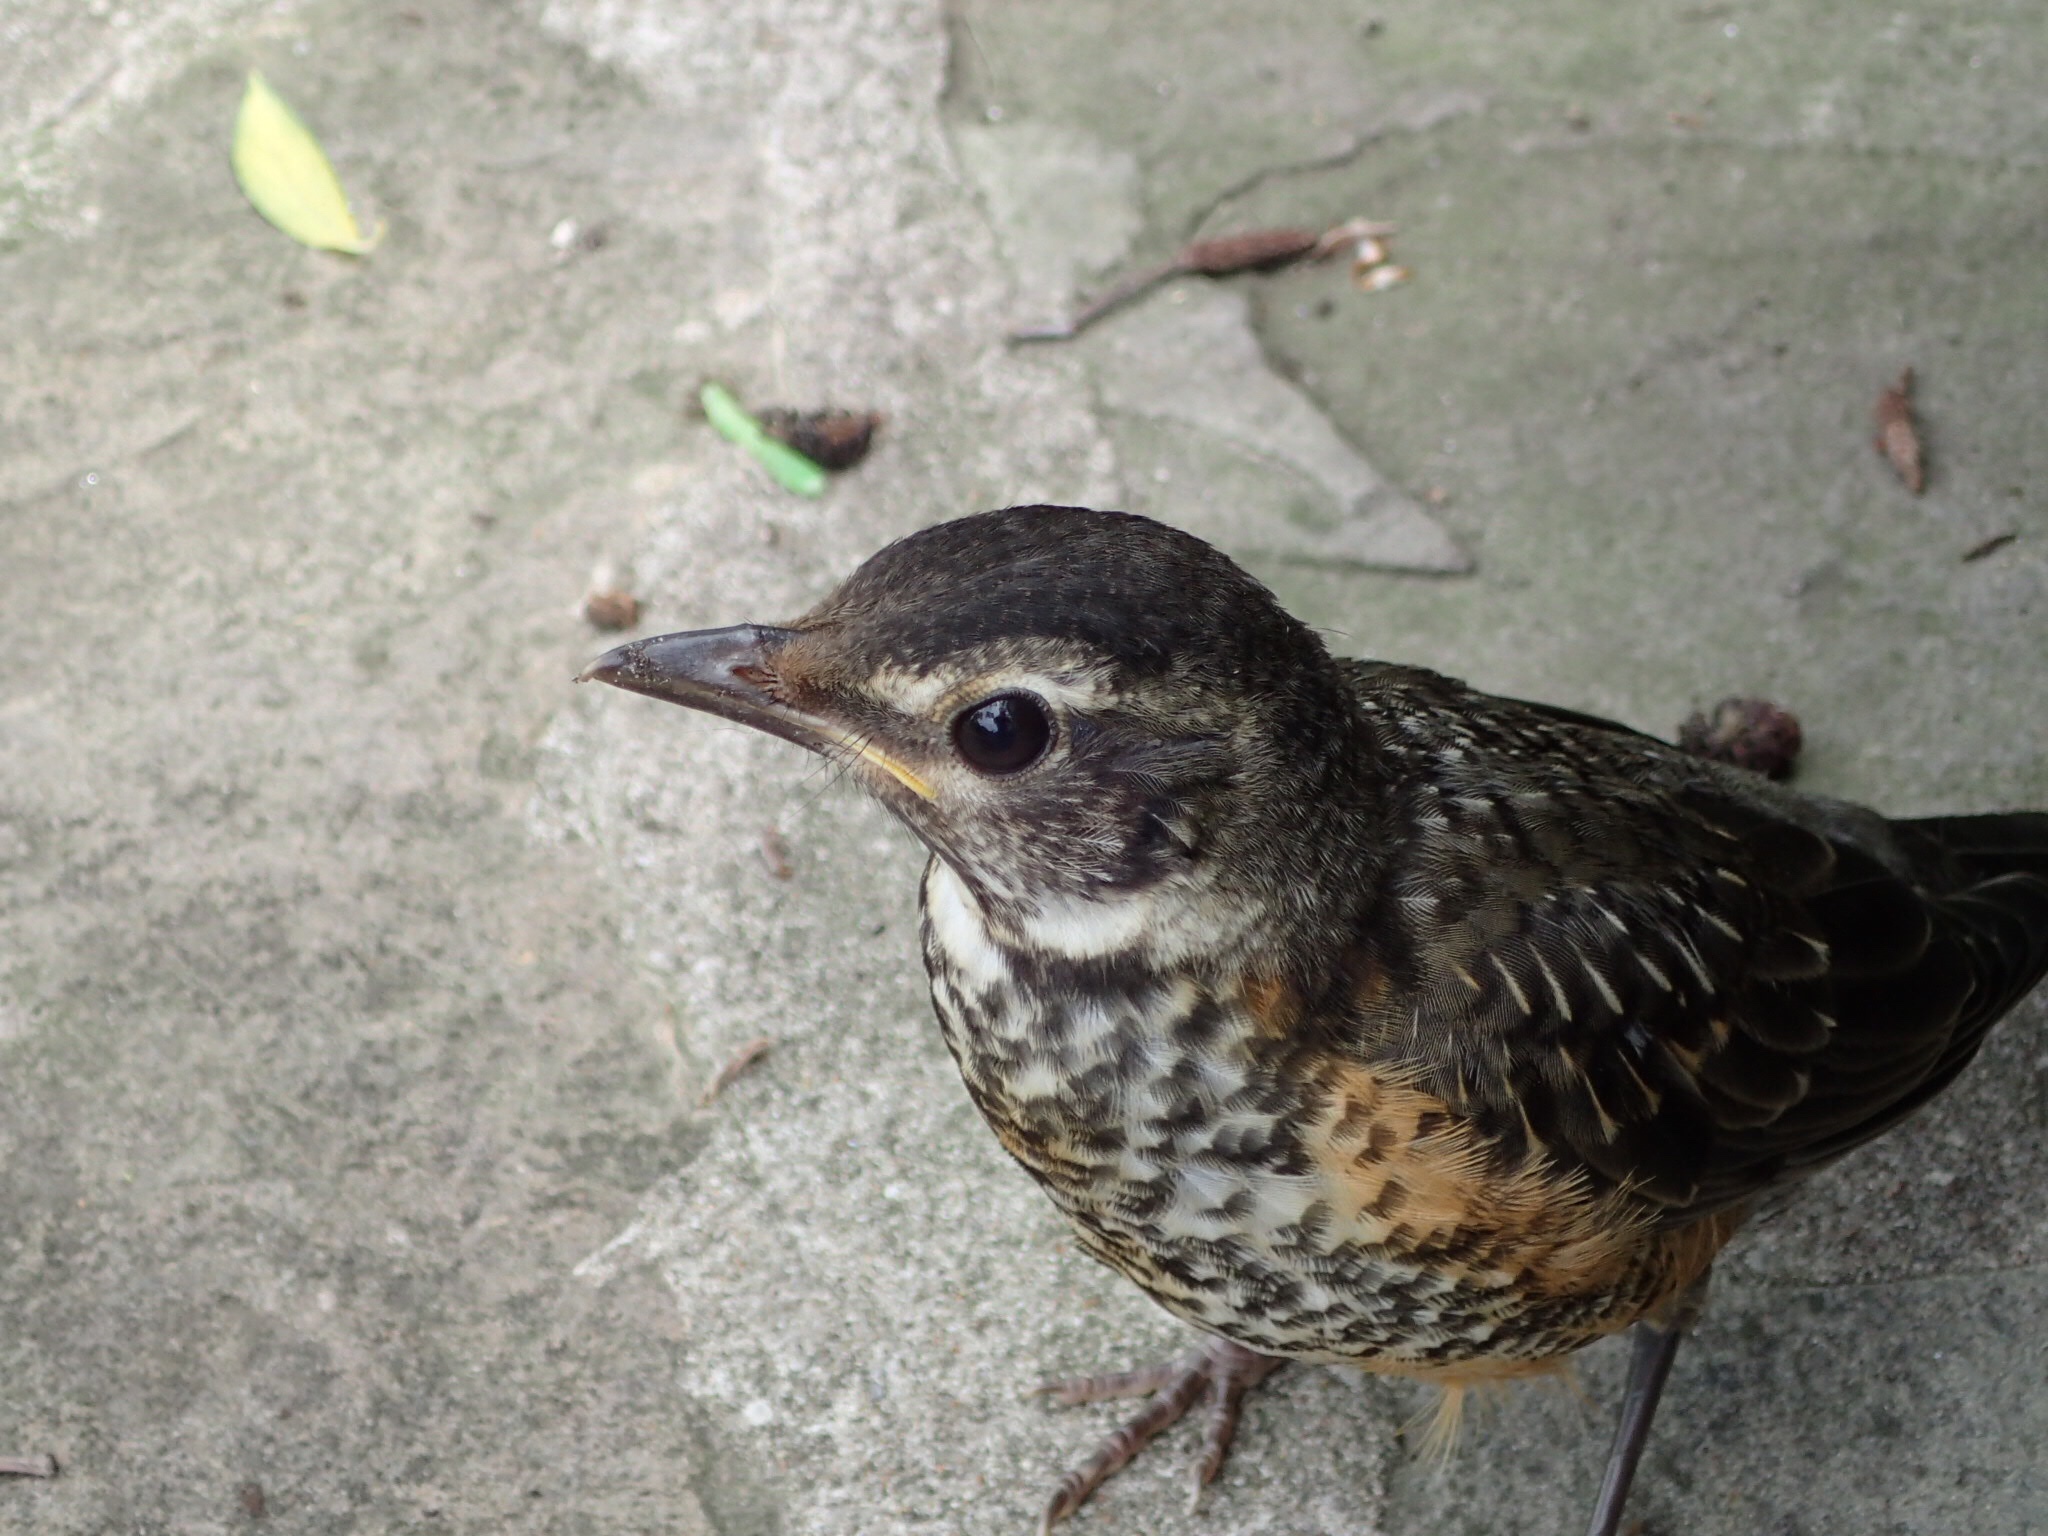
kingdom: Animalia
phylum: Chordata
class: Aves
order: Passeriformes
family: Turdidae
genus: Turdus
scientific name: Turdus migratorius
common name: American robin
